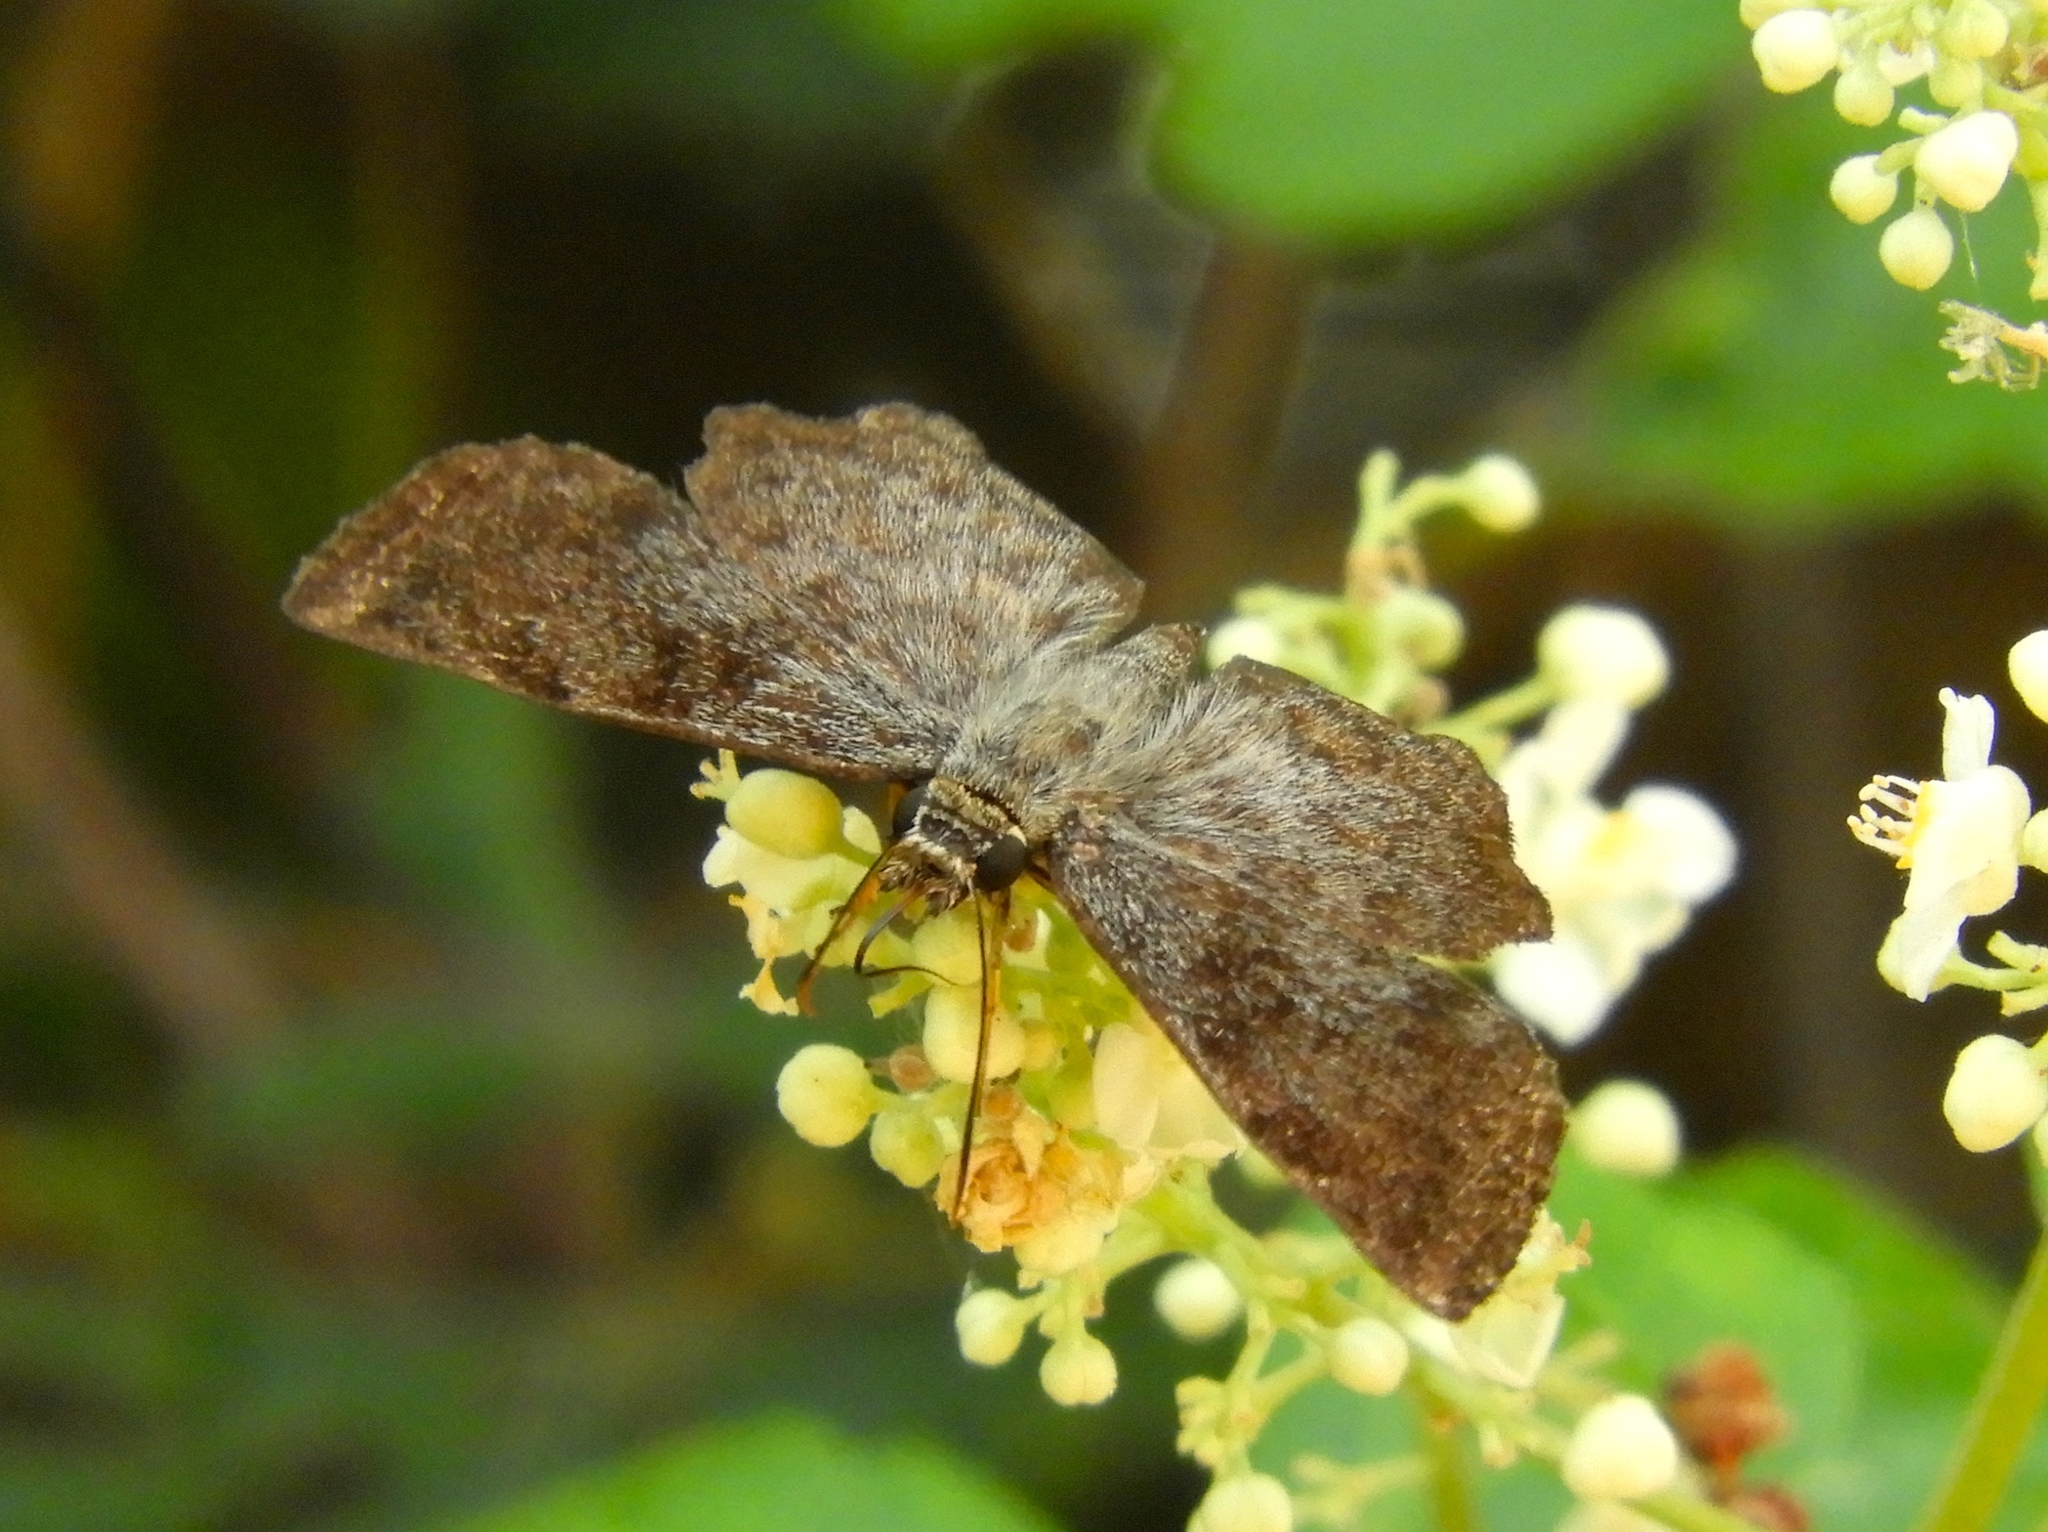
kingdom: Animalia
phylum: Arthropoda
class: Insecta
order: Lepidoptera
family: Hesperiidae
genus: Antigonus
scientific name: Antigonus erosus
